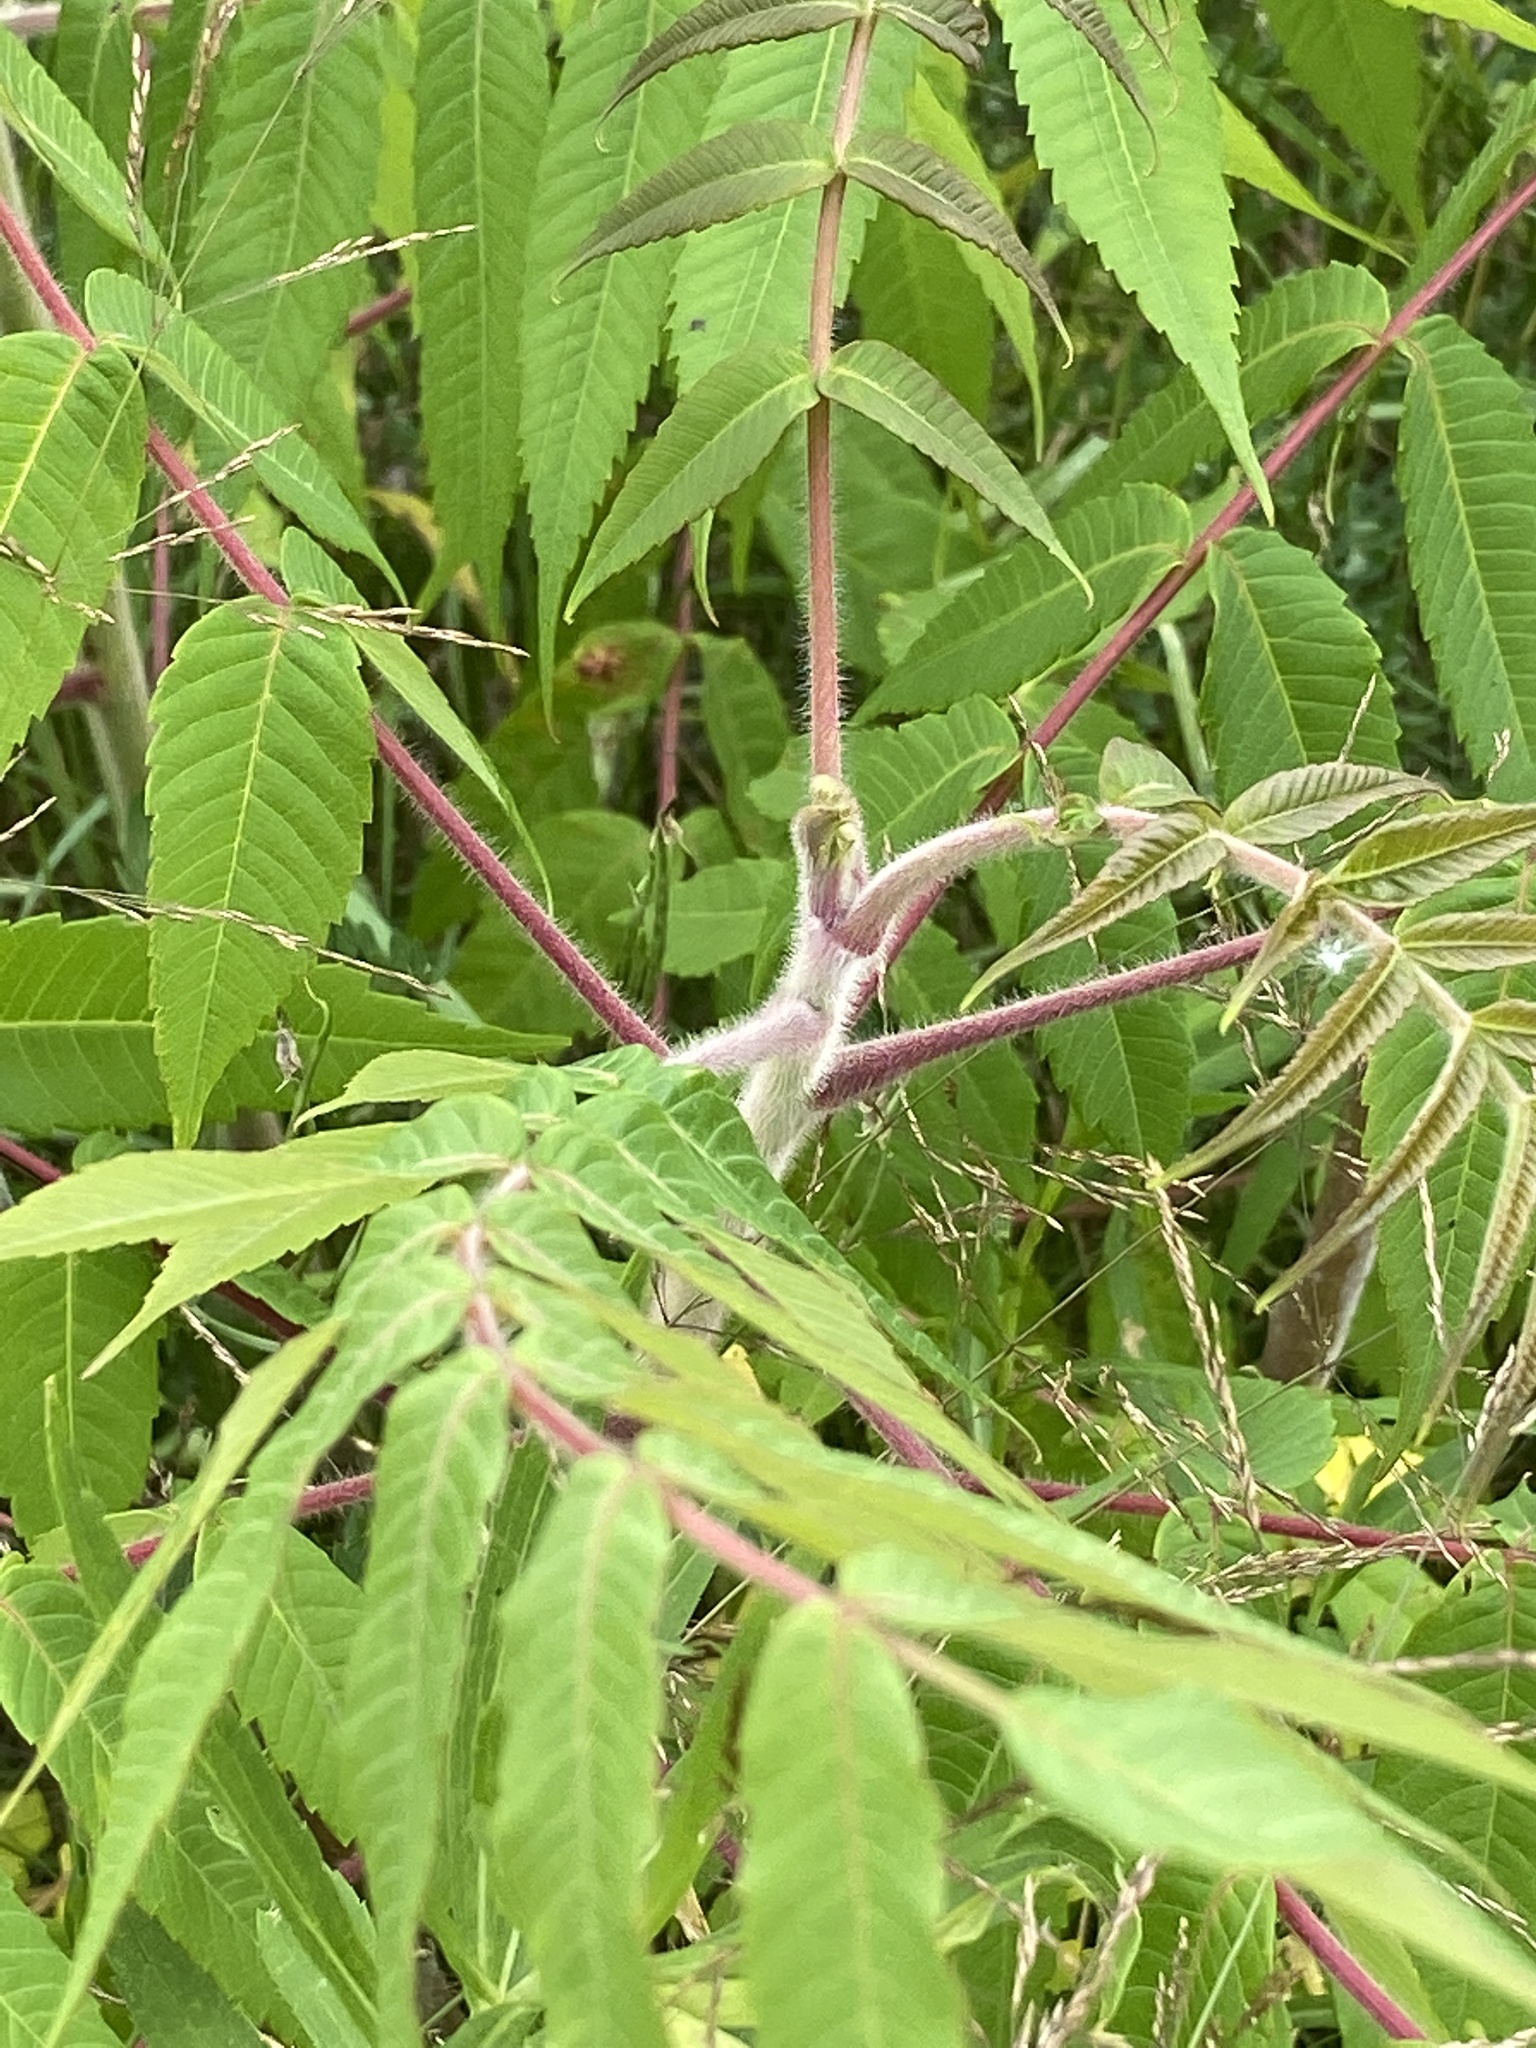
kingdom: Plantae
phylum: Tracheophyta
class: Magnoliopsida
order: Sapindales
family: Anacardiaceae
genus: Rhus
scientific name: Rhus typhina
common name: Staghorn sumac
